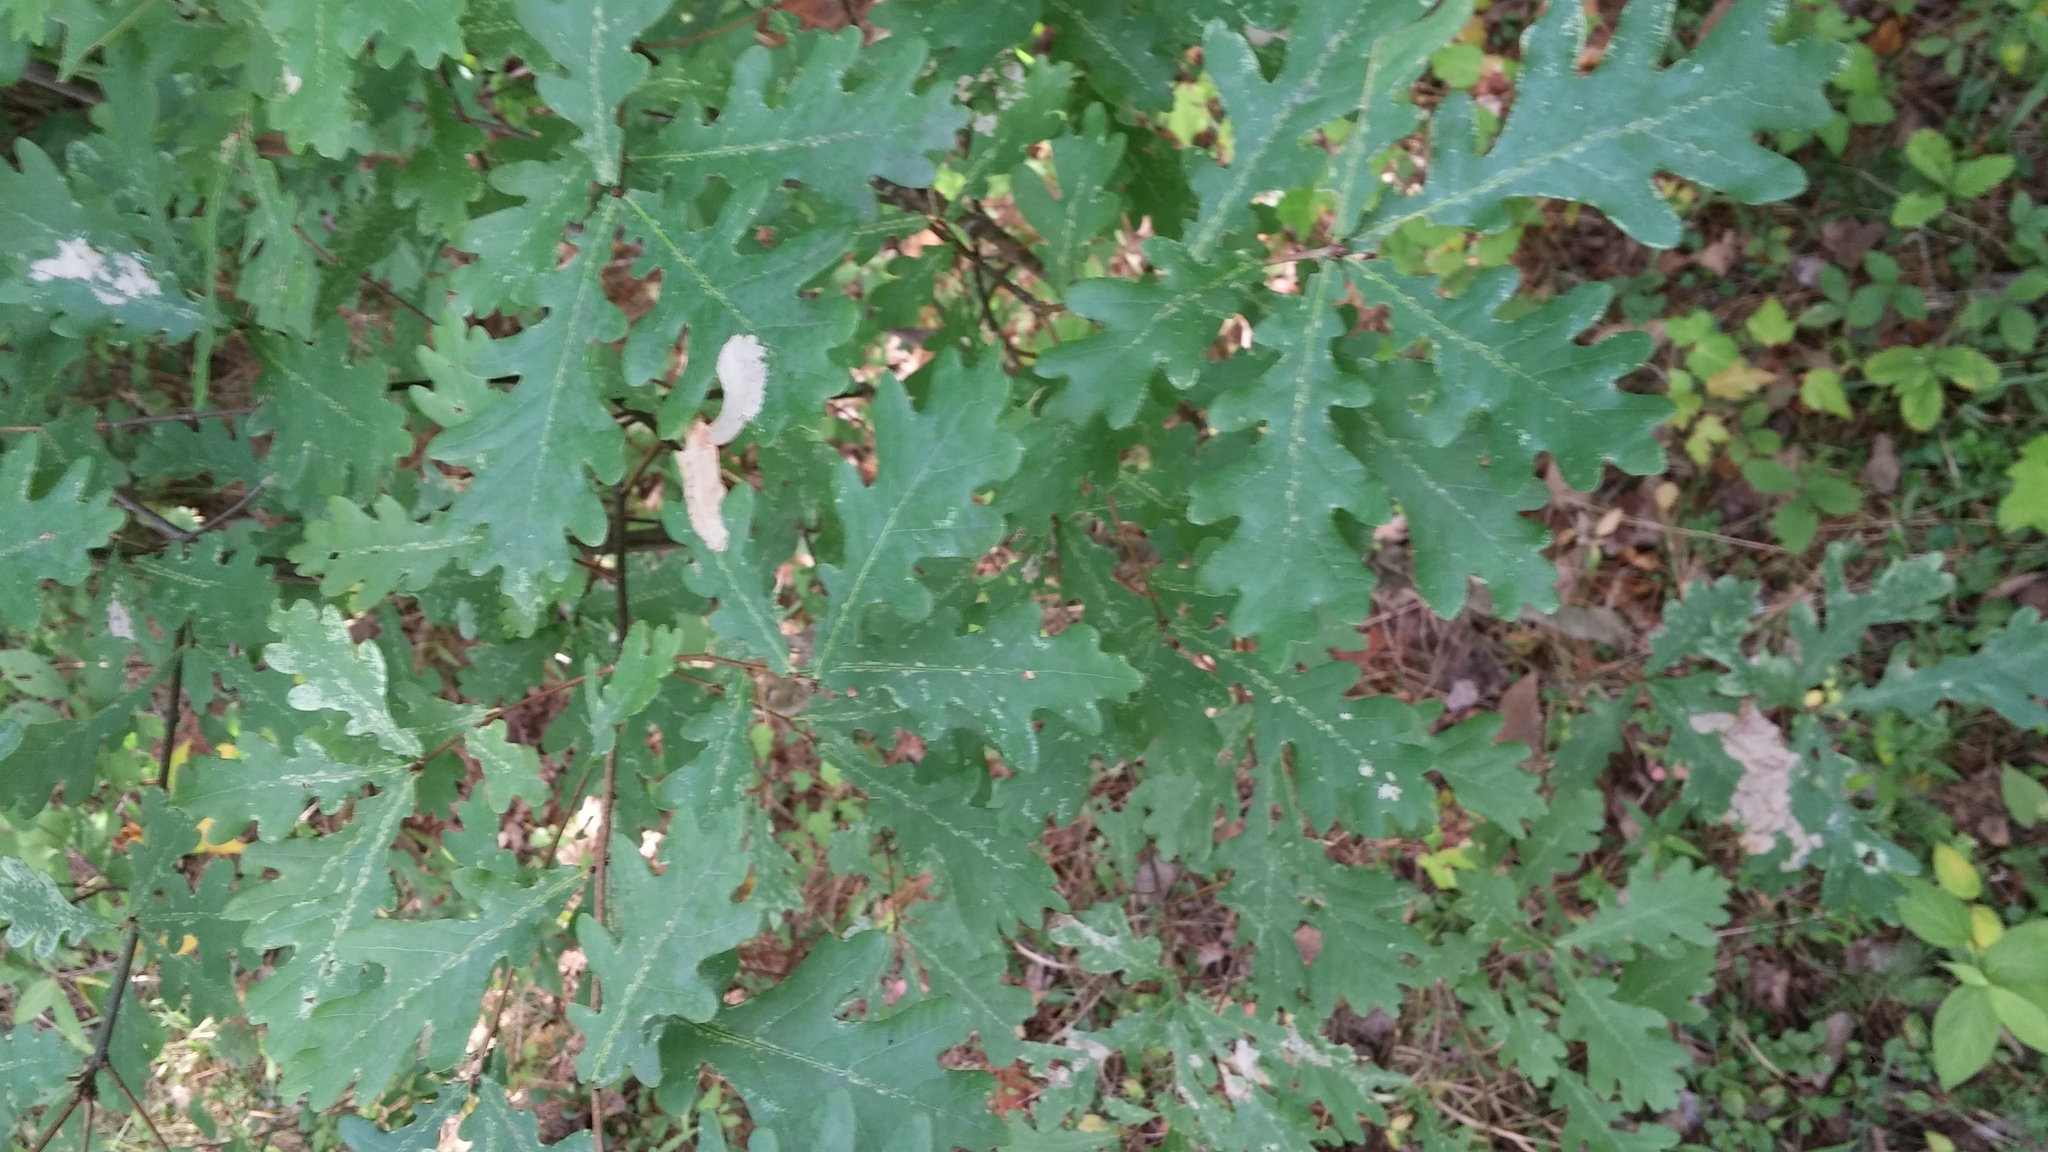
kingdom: Plantae
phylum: Tracheophyta
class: Magnoliopsida
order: Fagales
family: Fagaceae
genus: Quercus
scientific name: Quercus robur
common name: Pedunculate oak
